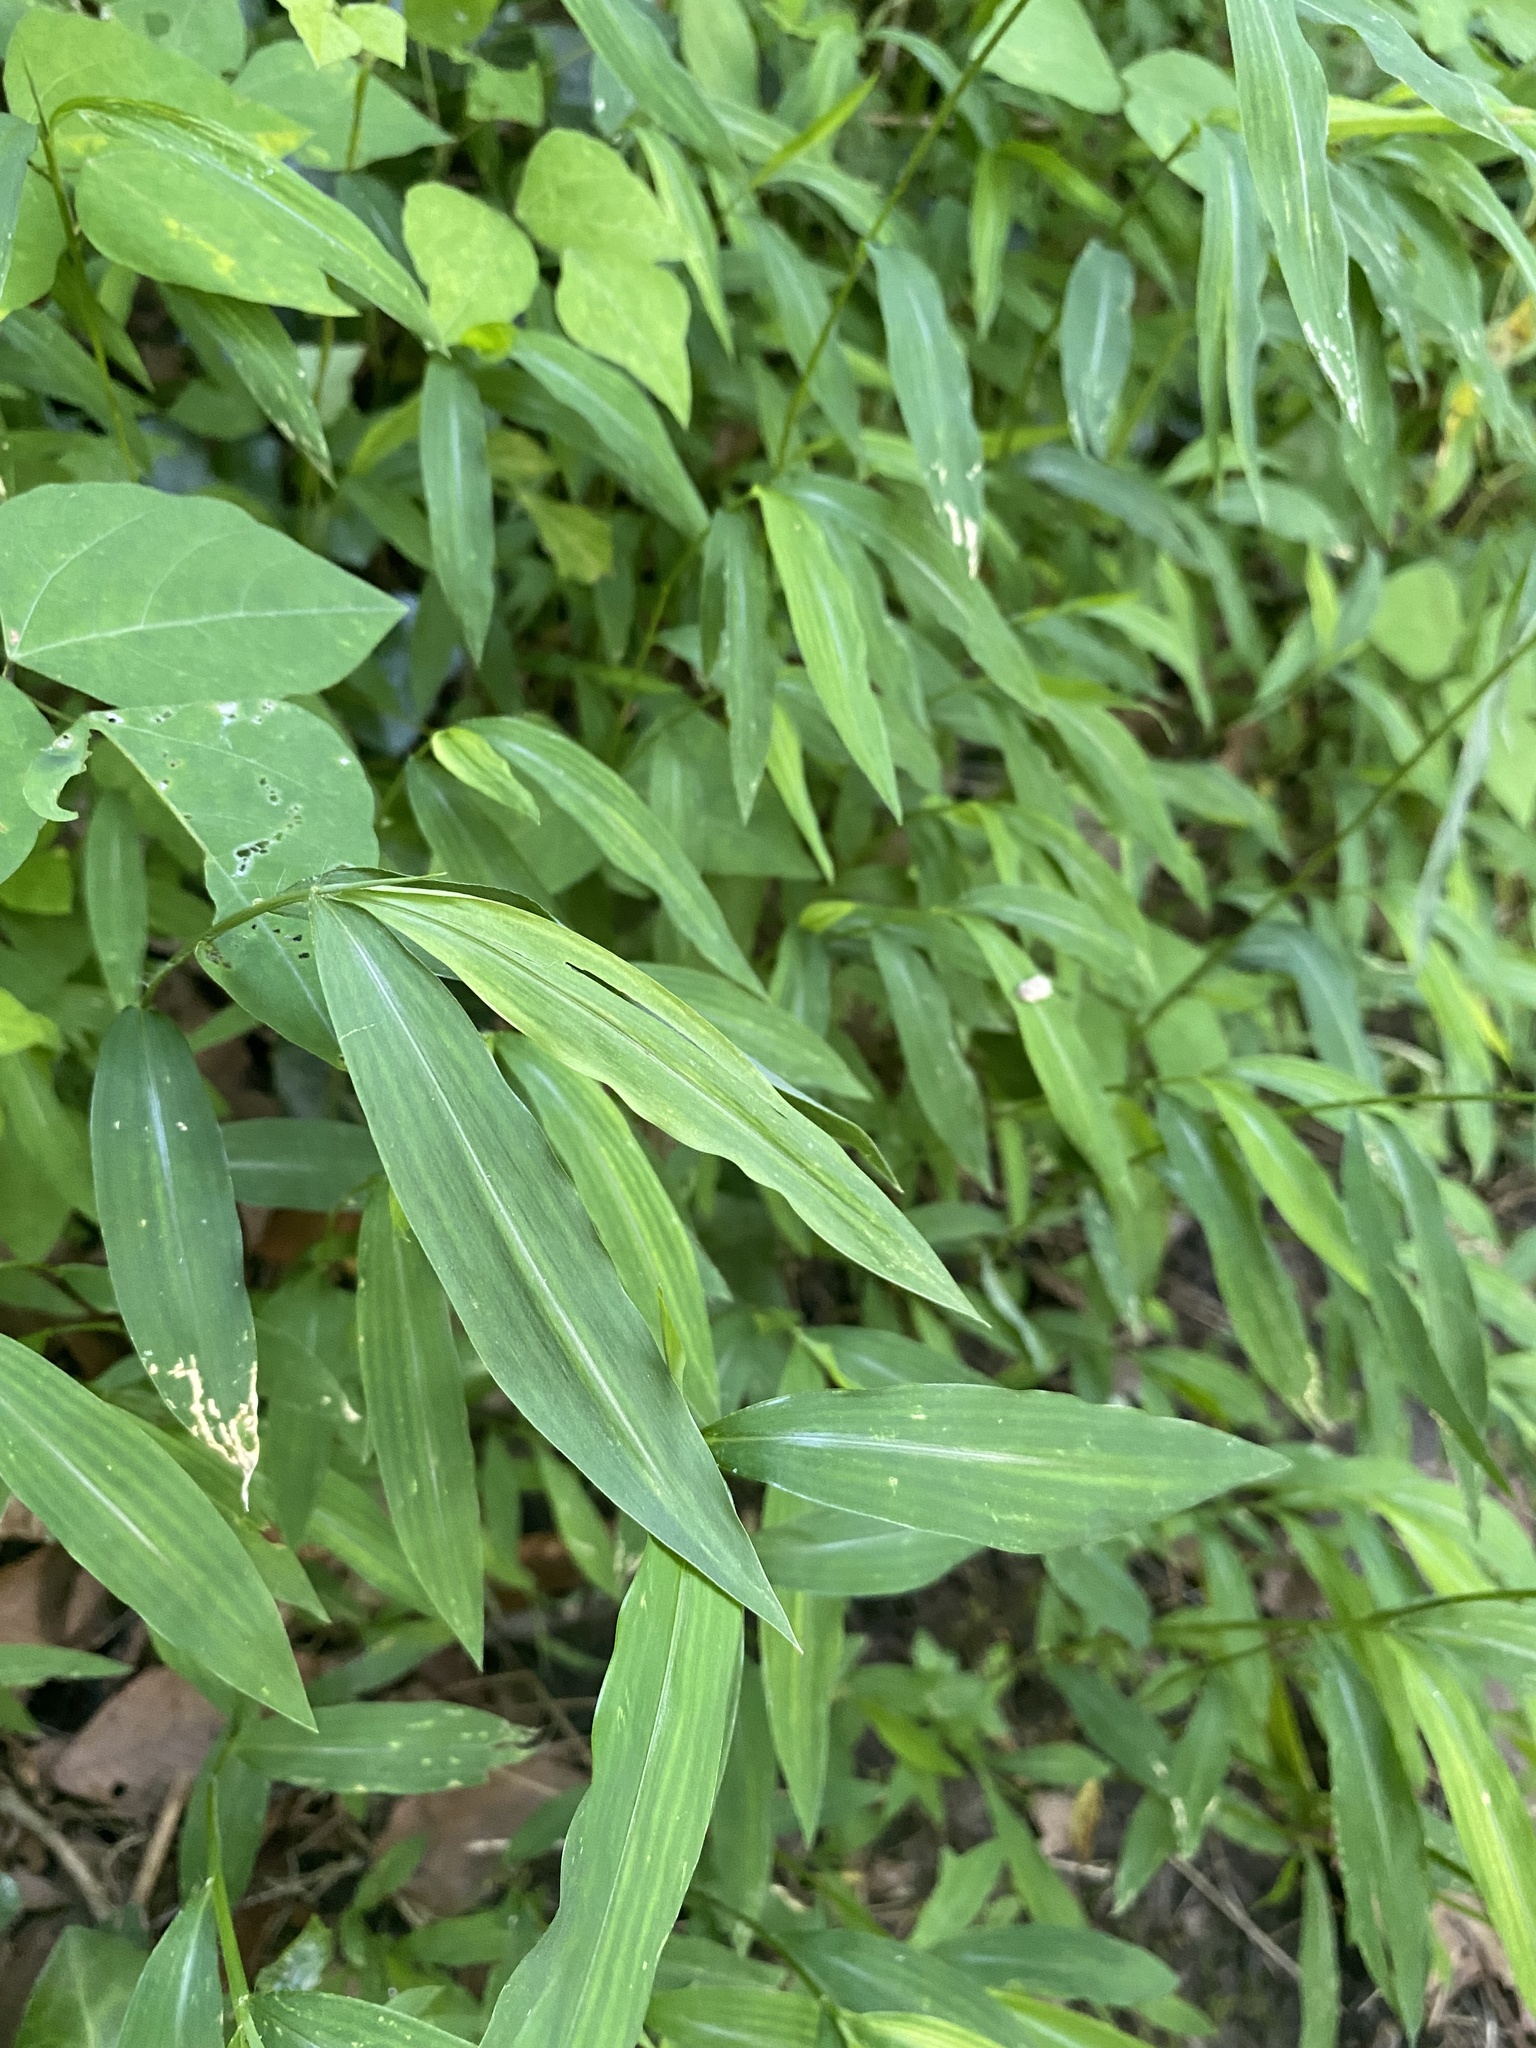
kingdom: Plantae
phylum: Tracheophyta
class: Liliopsida
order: Poales
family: Poaceae
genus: Microstegium
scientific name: Microstegium vimineum
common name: Japanese stiltgrass
